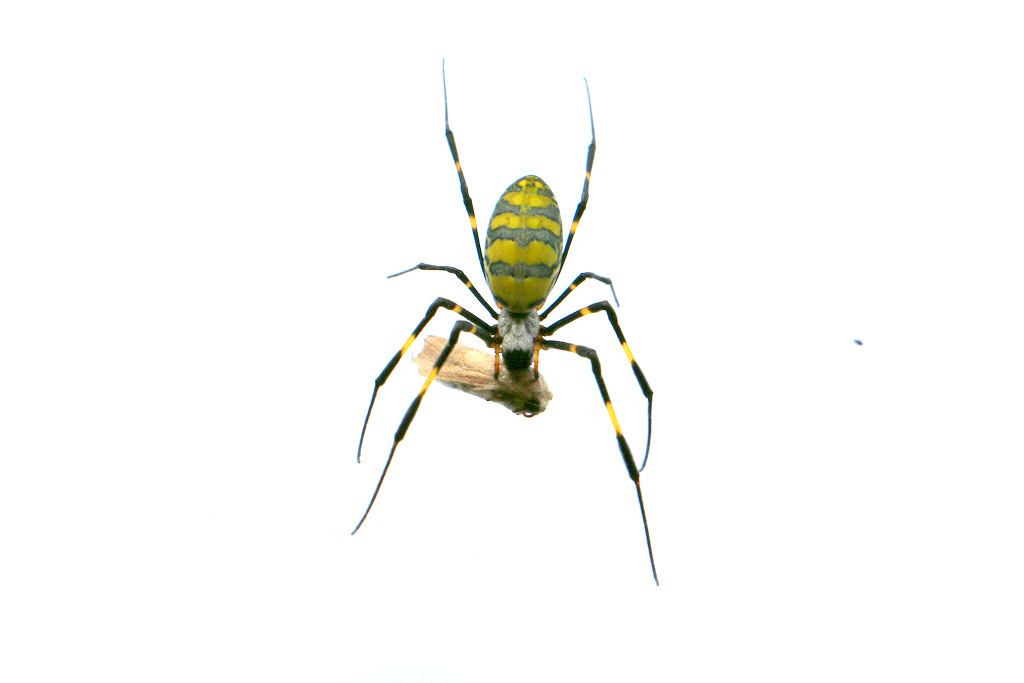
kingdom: Animalia
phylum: Arthropoda
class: Arachnida
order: Araneae
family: Araneidae
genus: Trichonephila
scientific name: Trichonephila clavata
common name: Jorō spider
